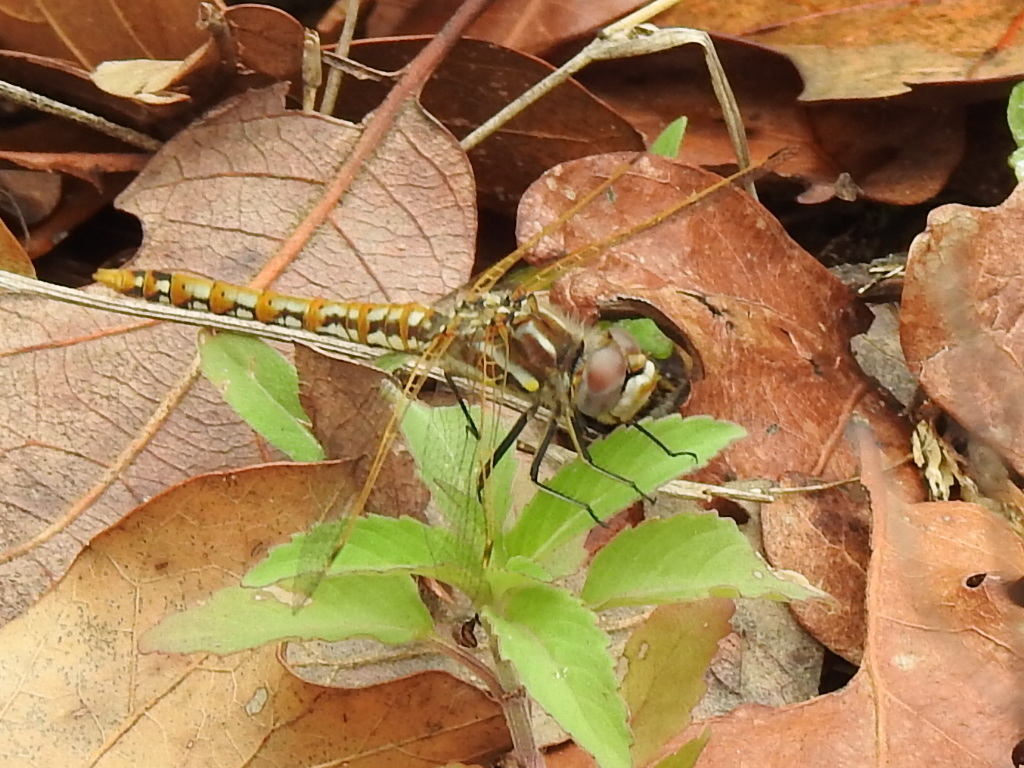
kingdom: Animalia
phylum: Arthropoda
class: Insecta
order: Odonata
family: Libellulidae
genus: Sympetrum
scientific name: Sympetrum corruptum
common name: Variegated meadowhawk
